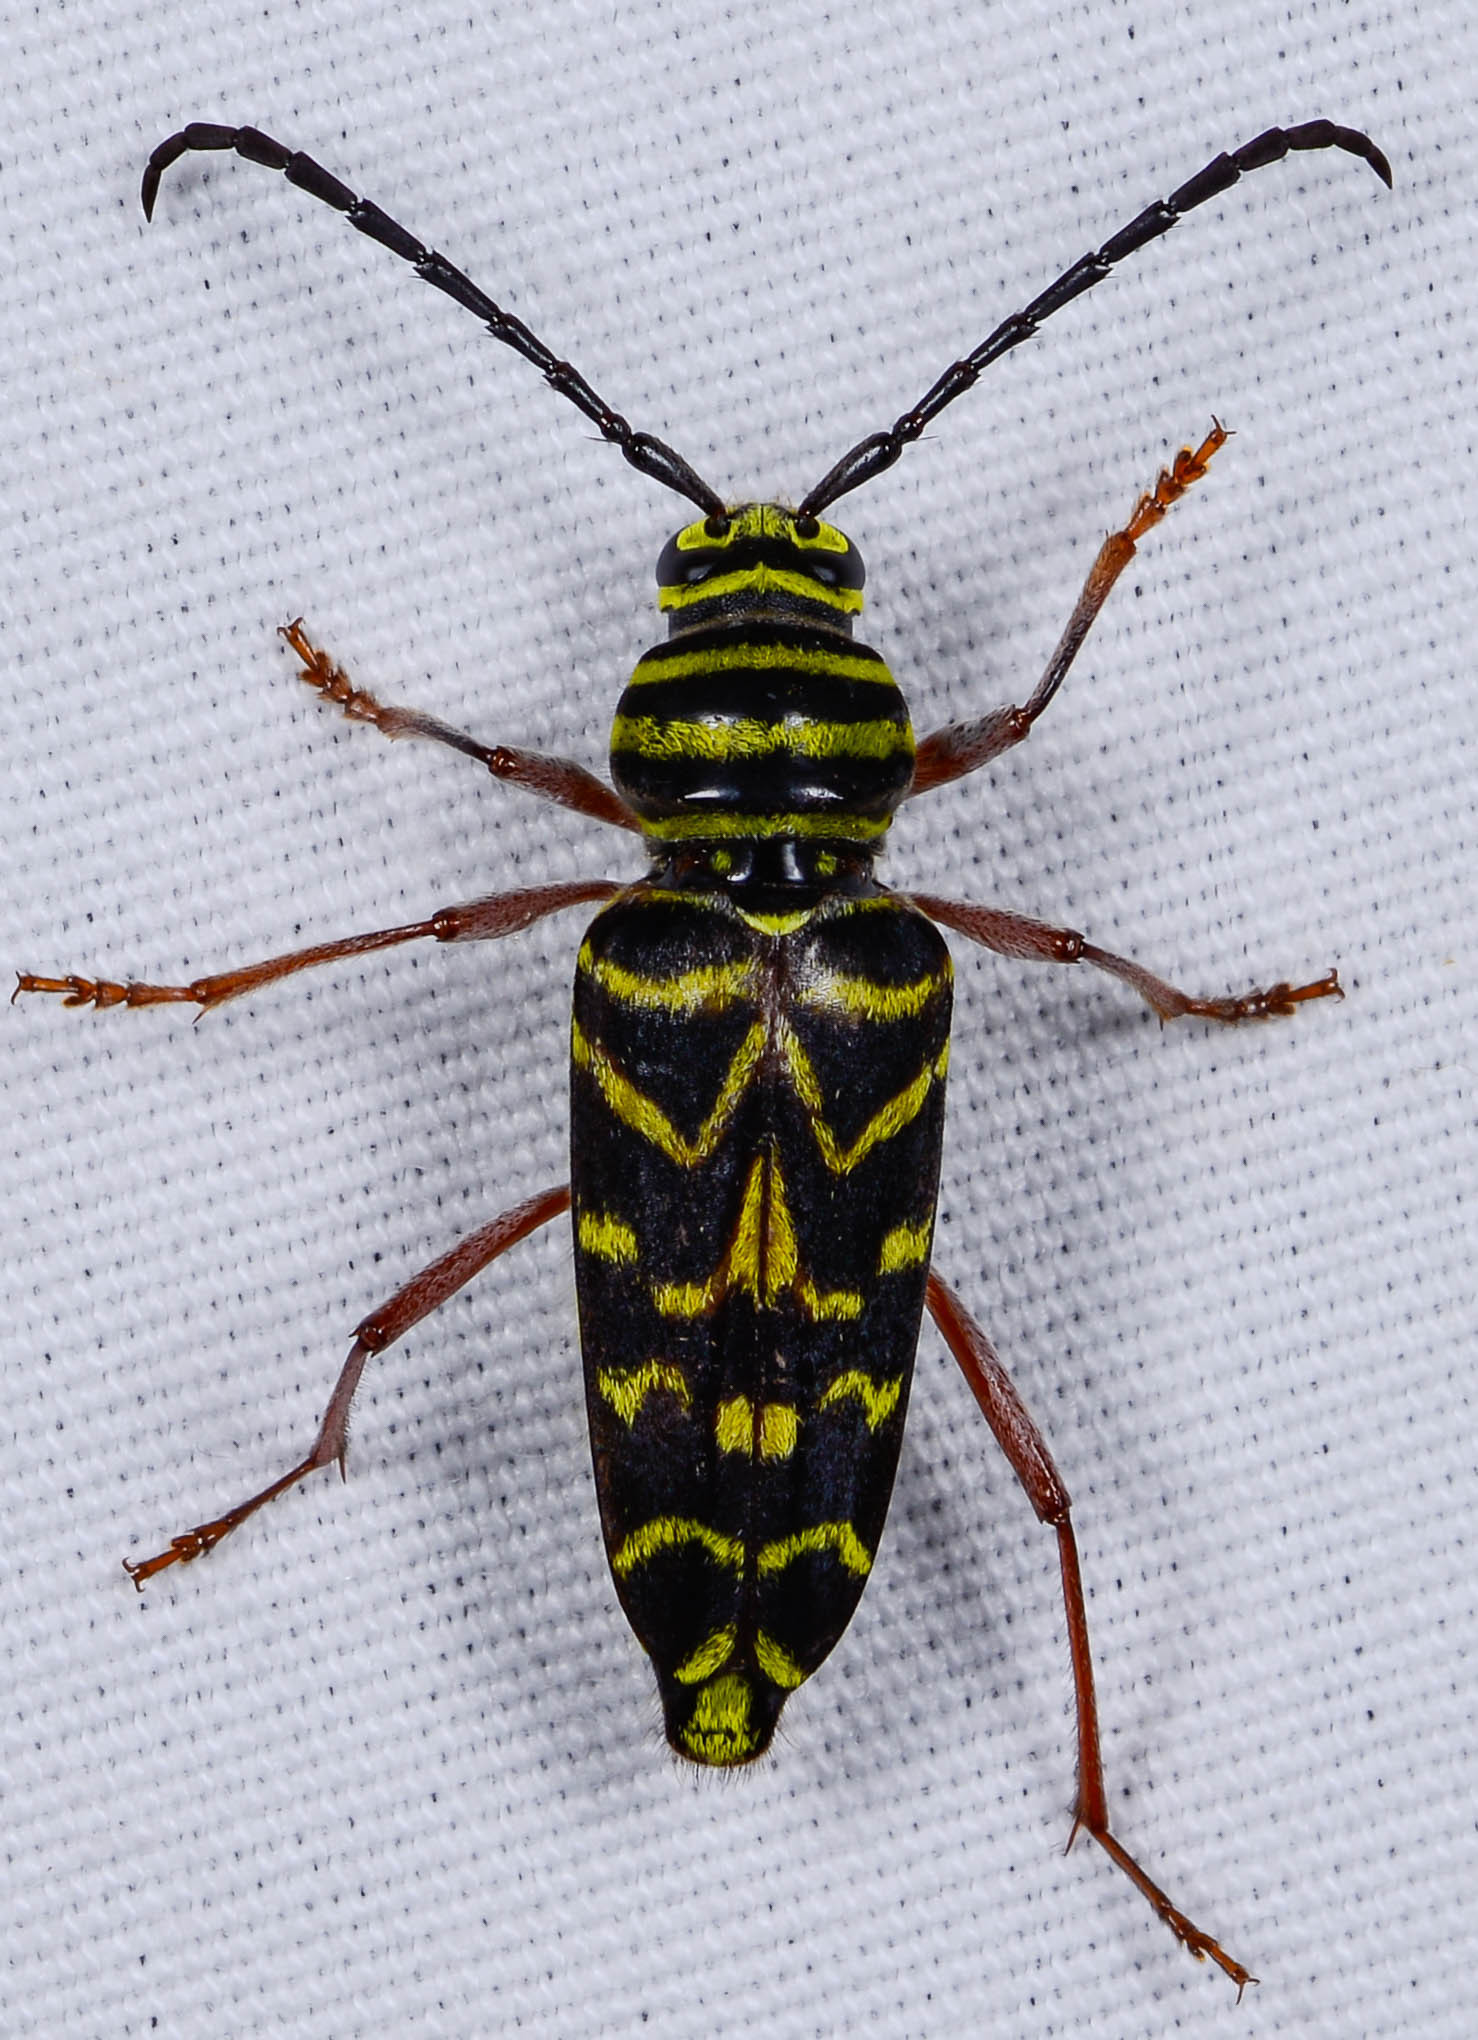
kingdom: Animalia
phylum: Arthropoda
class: Insecta
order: Coleoptera
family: Cerambycidae
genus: Megacyllene
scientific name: Megacyllene robiniae
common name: Locust borer
